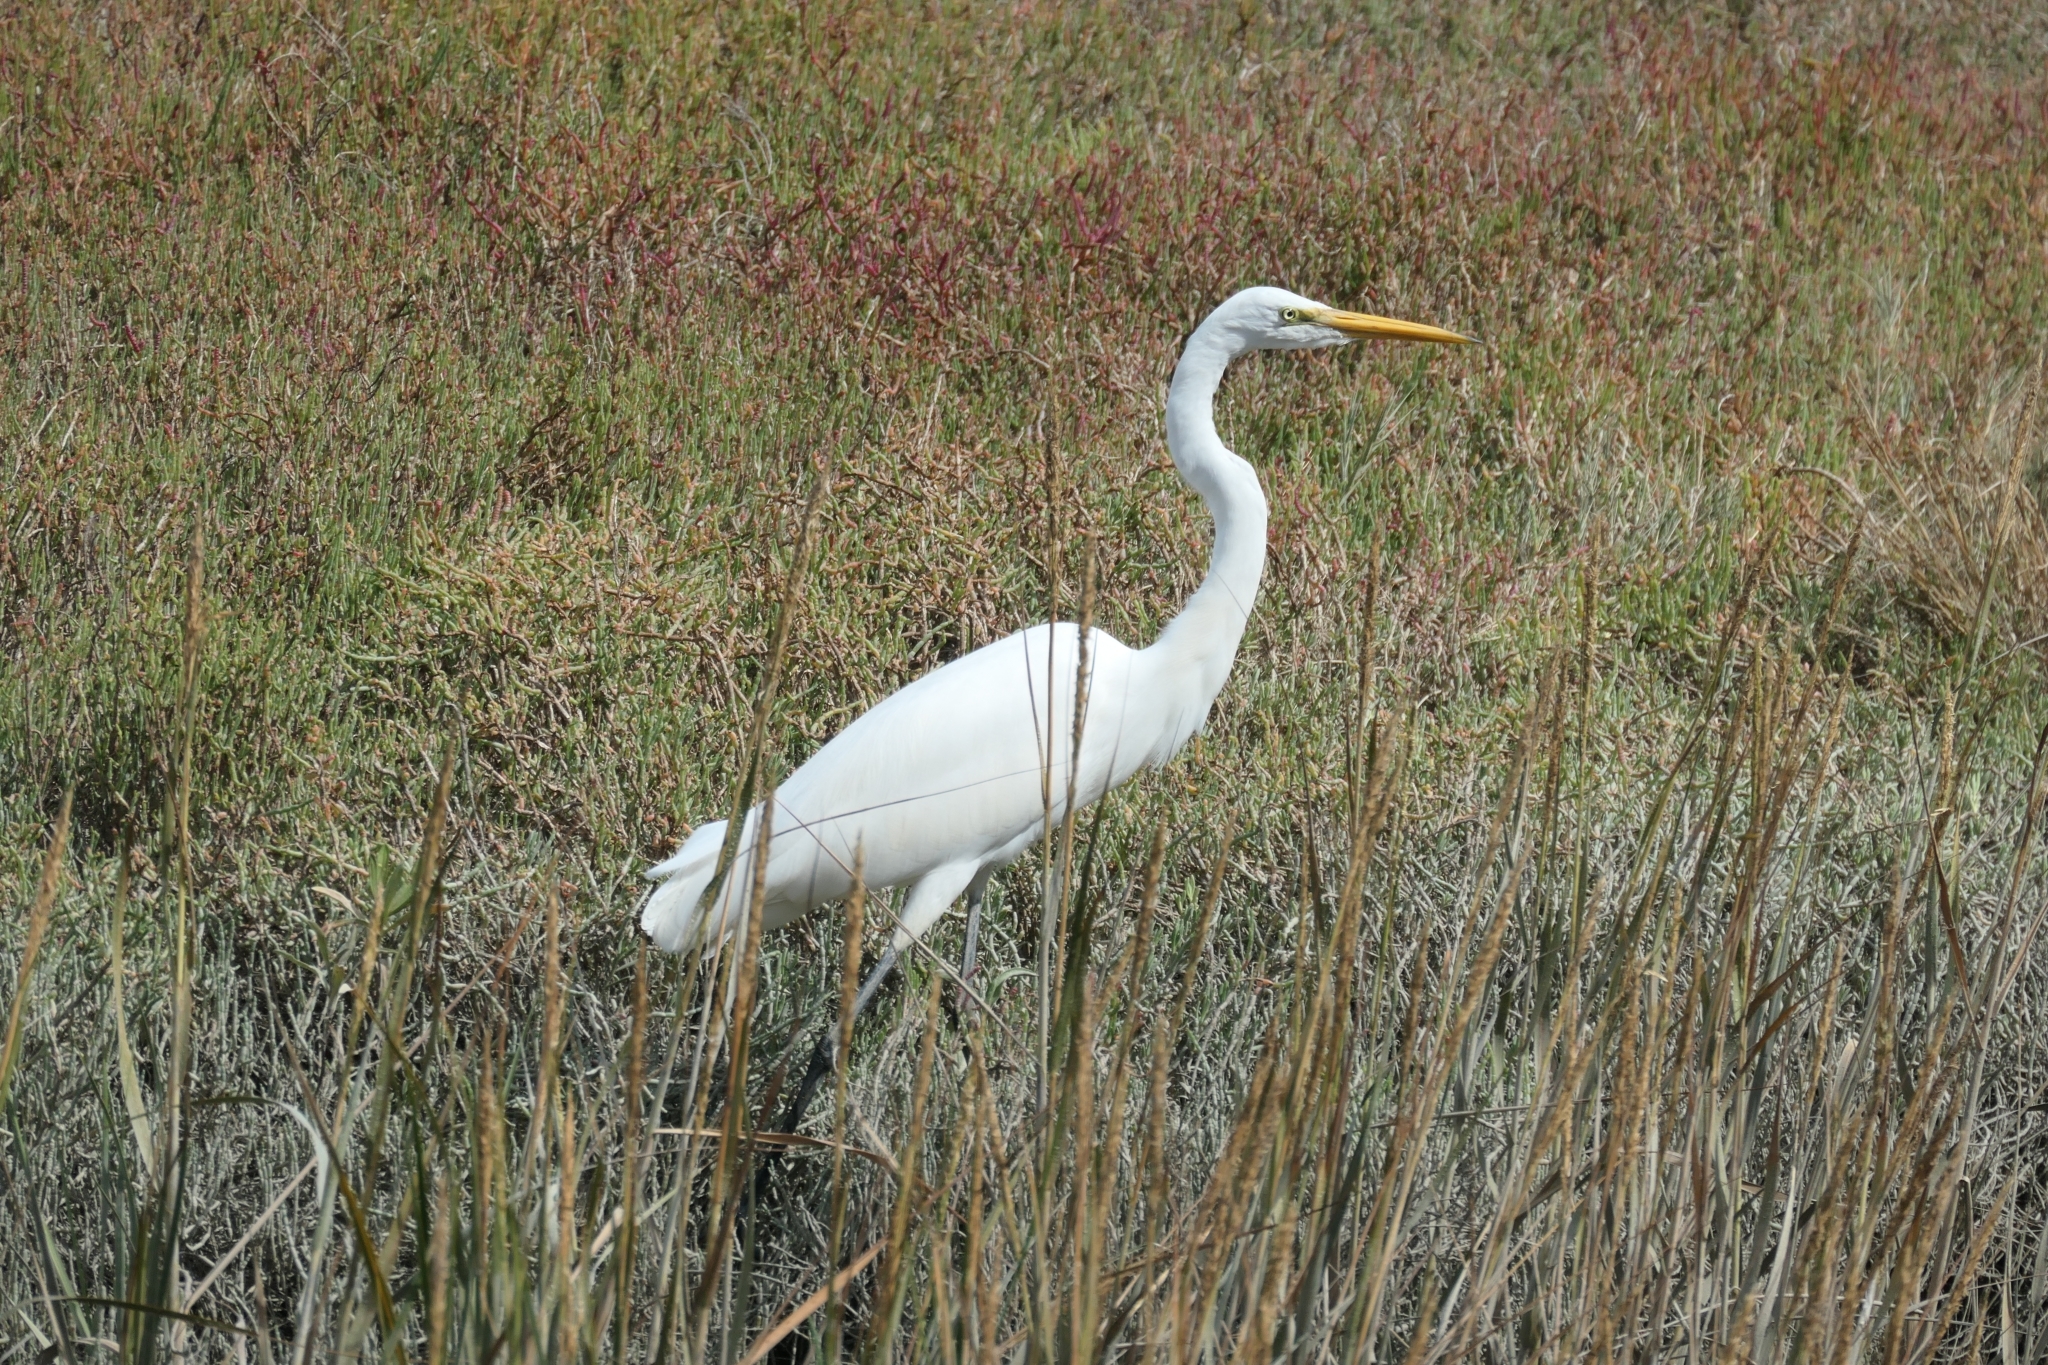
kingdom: Animalia
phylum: Chordata
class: Aves
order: Pelecaniformes
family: Ardeidae
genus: Ardea
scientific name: Ardea alba
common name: Great egret
